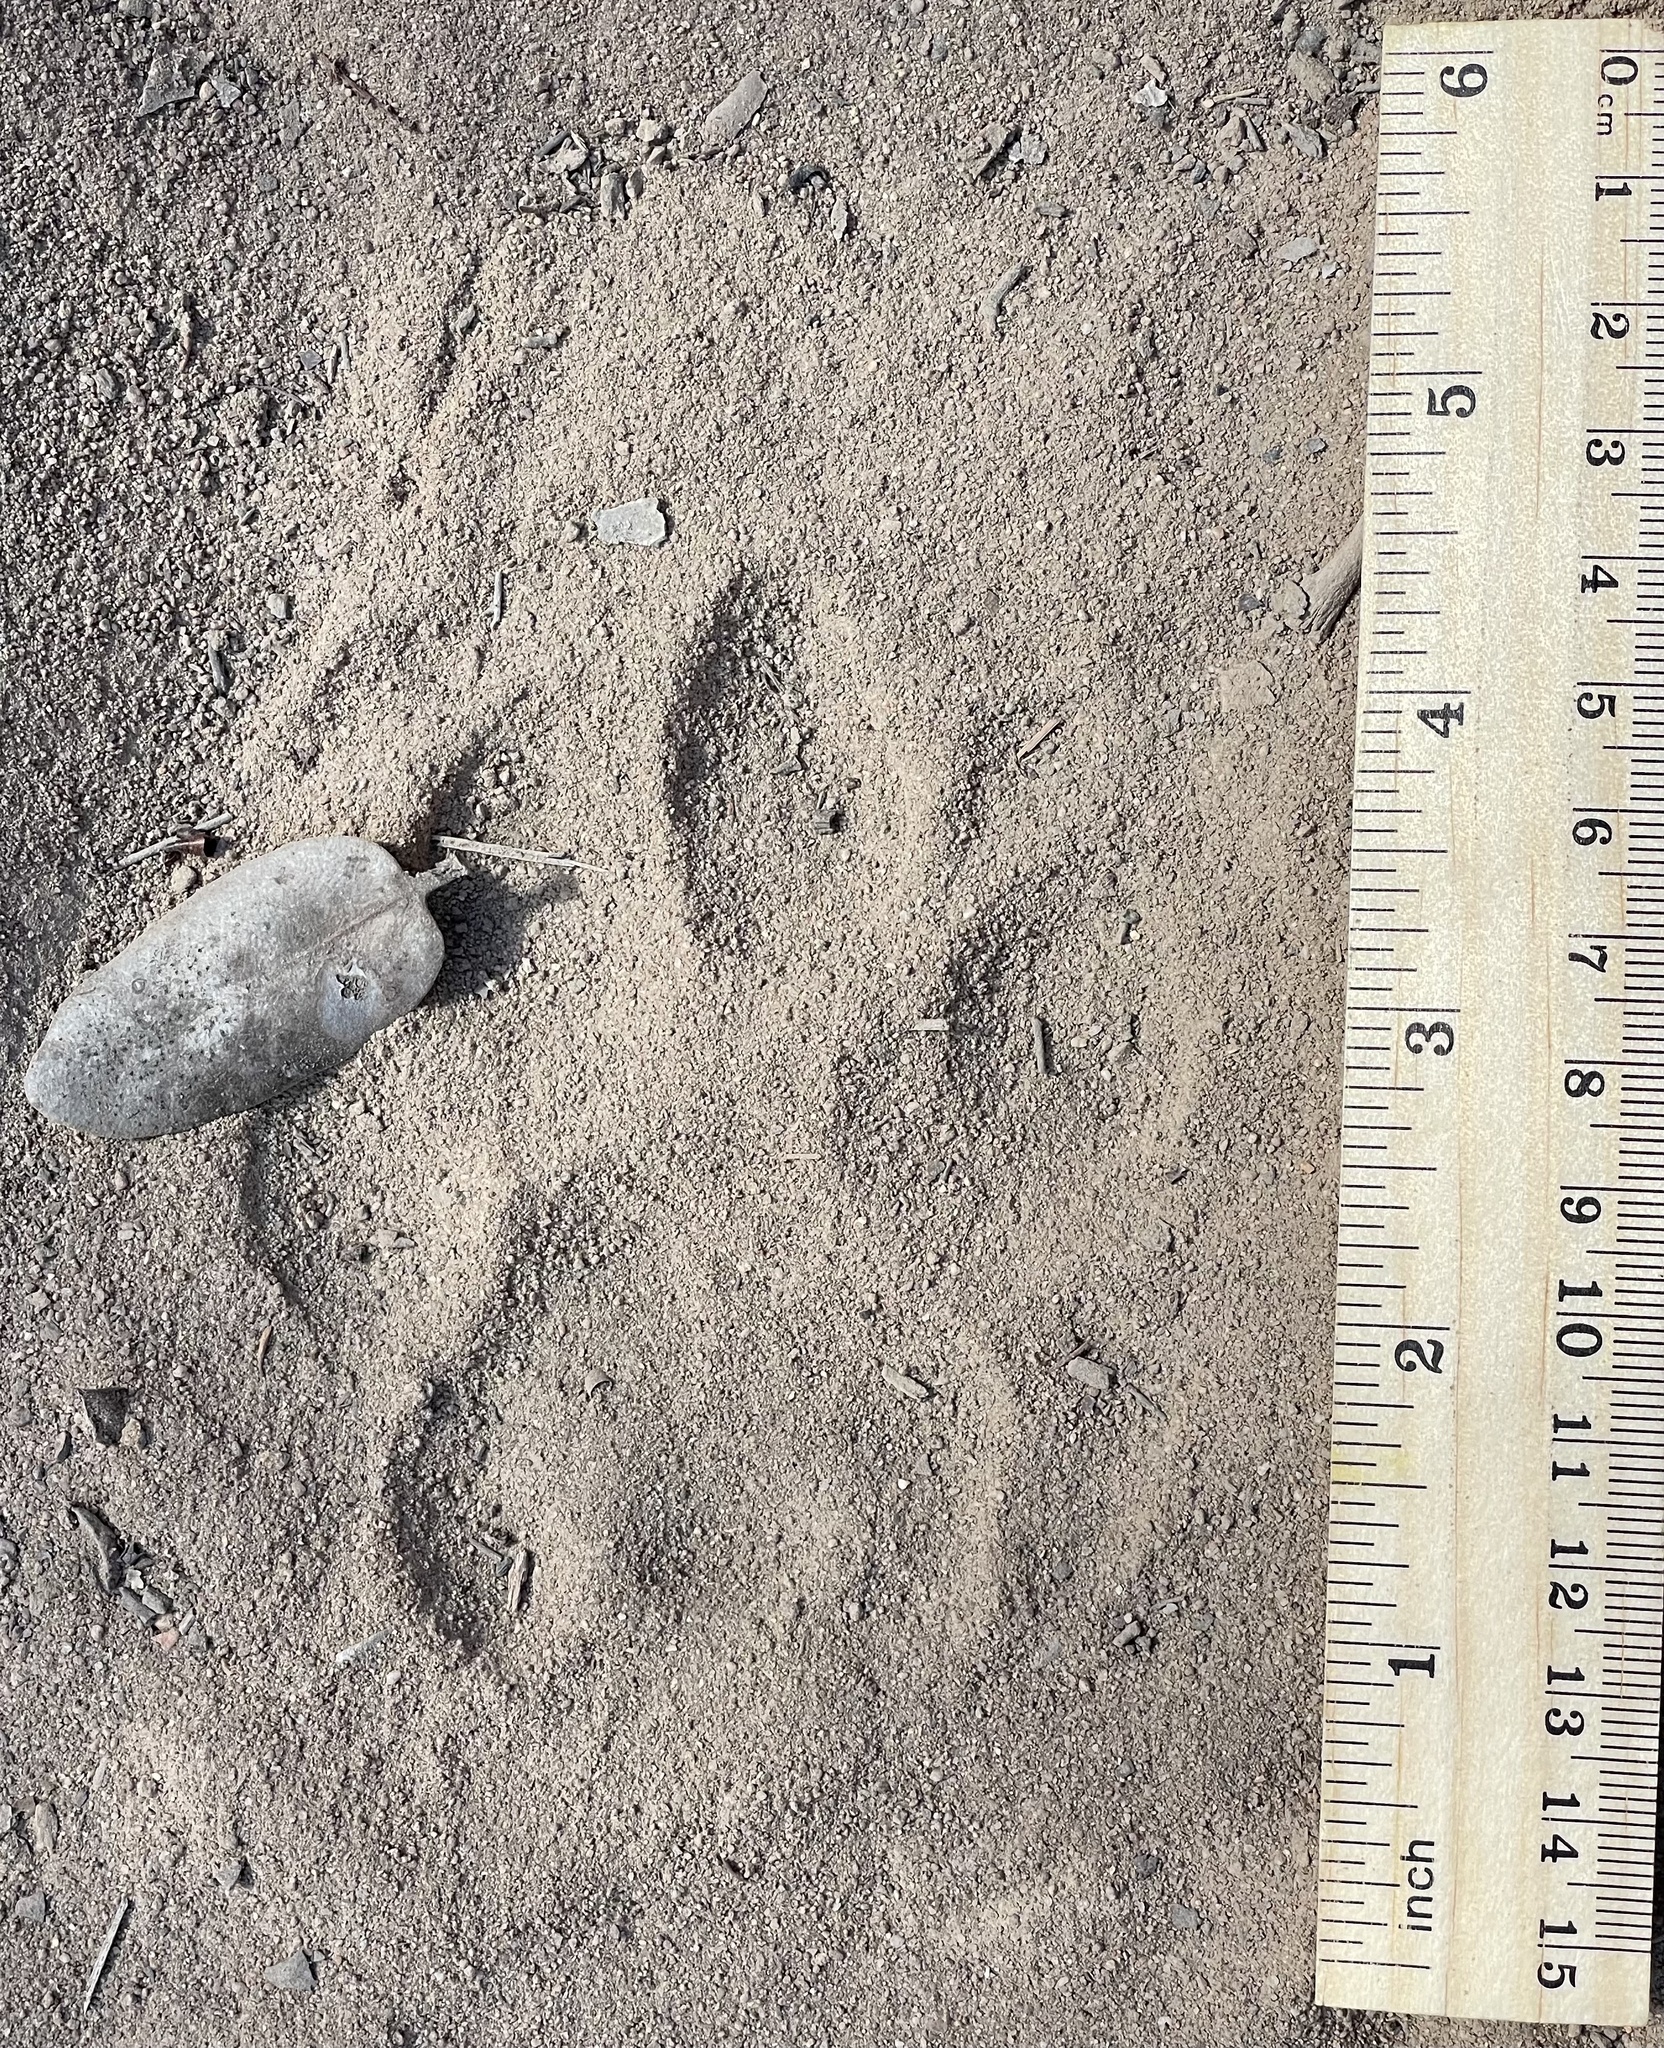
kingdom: Animalia
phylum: Chordata
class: Mammalia
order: Carnivora
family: Felidae
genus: Puma
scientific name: Puma concolor
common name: Puma
